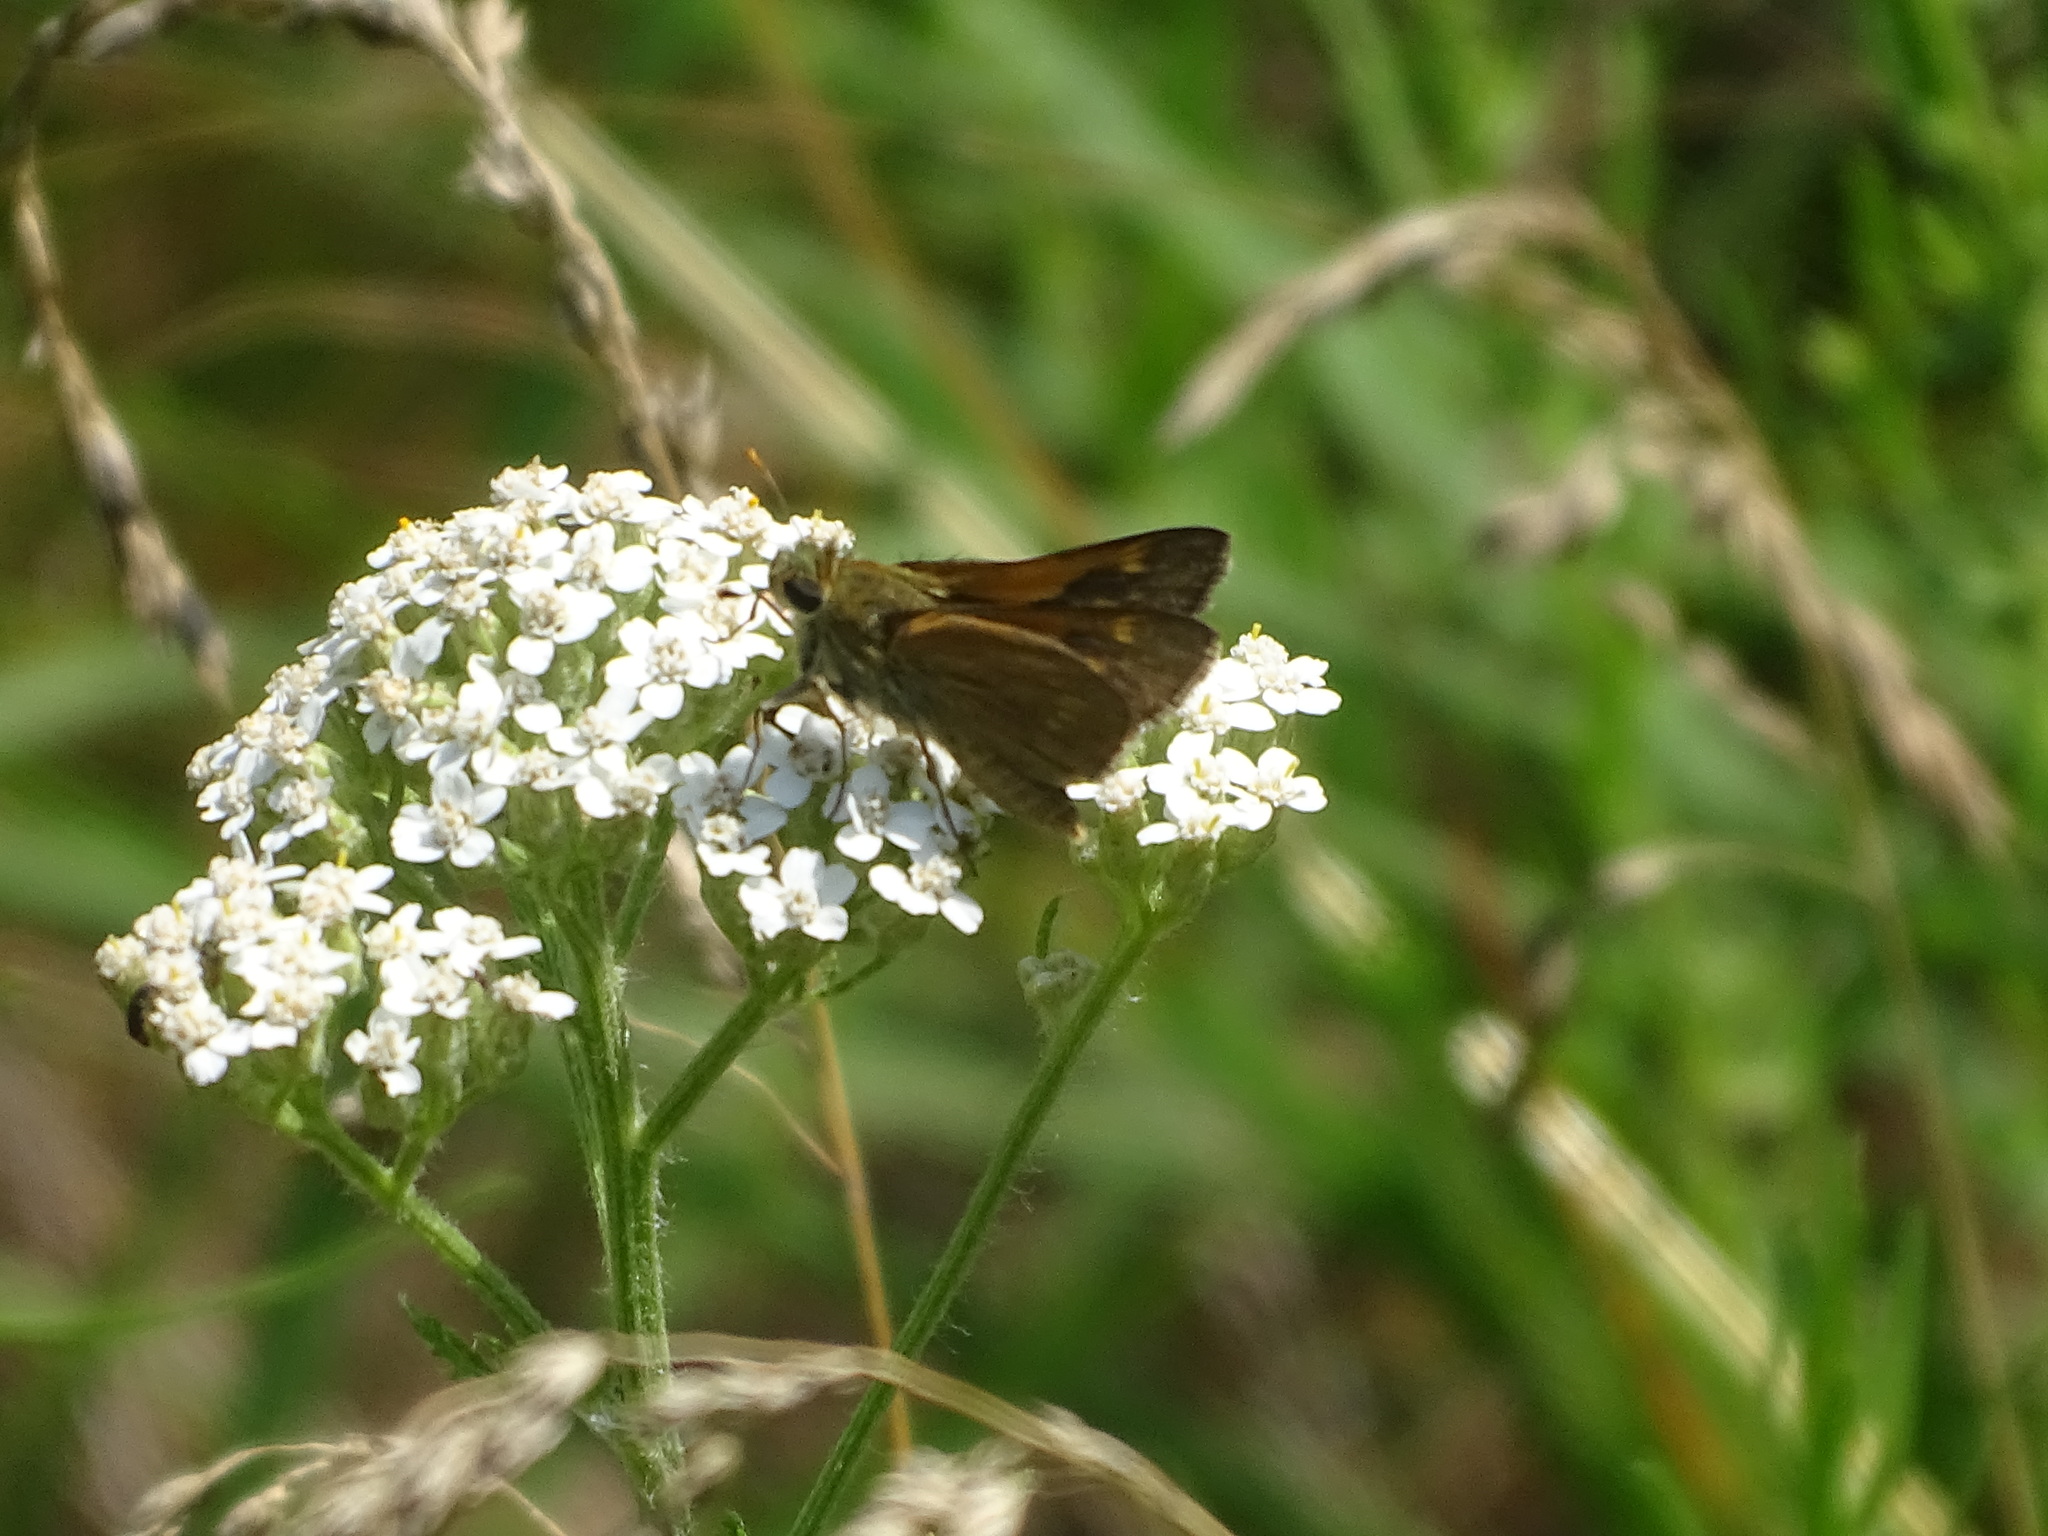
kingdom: Animalia
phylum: Arthropoda
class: Insecta
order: Lepidoptera
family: Hesperiidae
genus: Polites
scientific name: Polites origenes
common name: Crossline skipper
